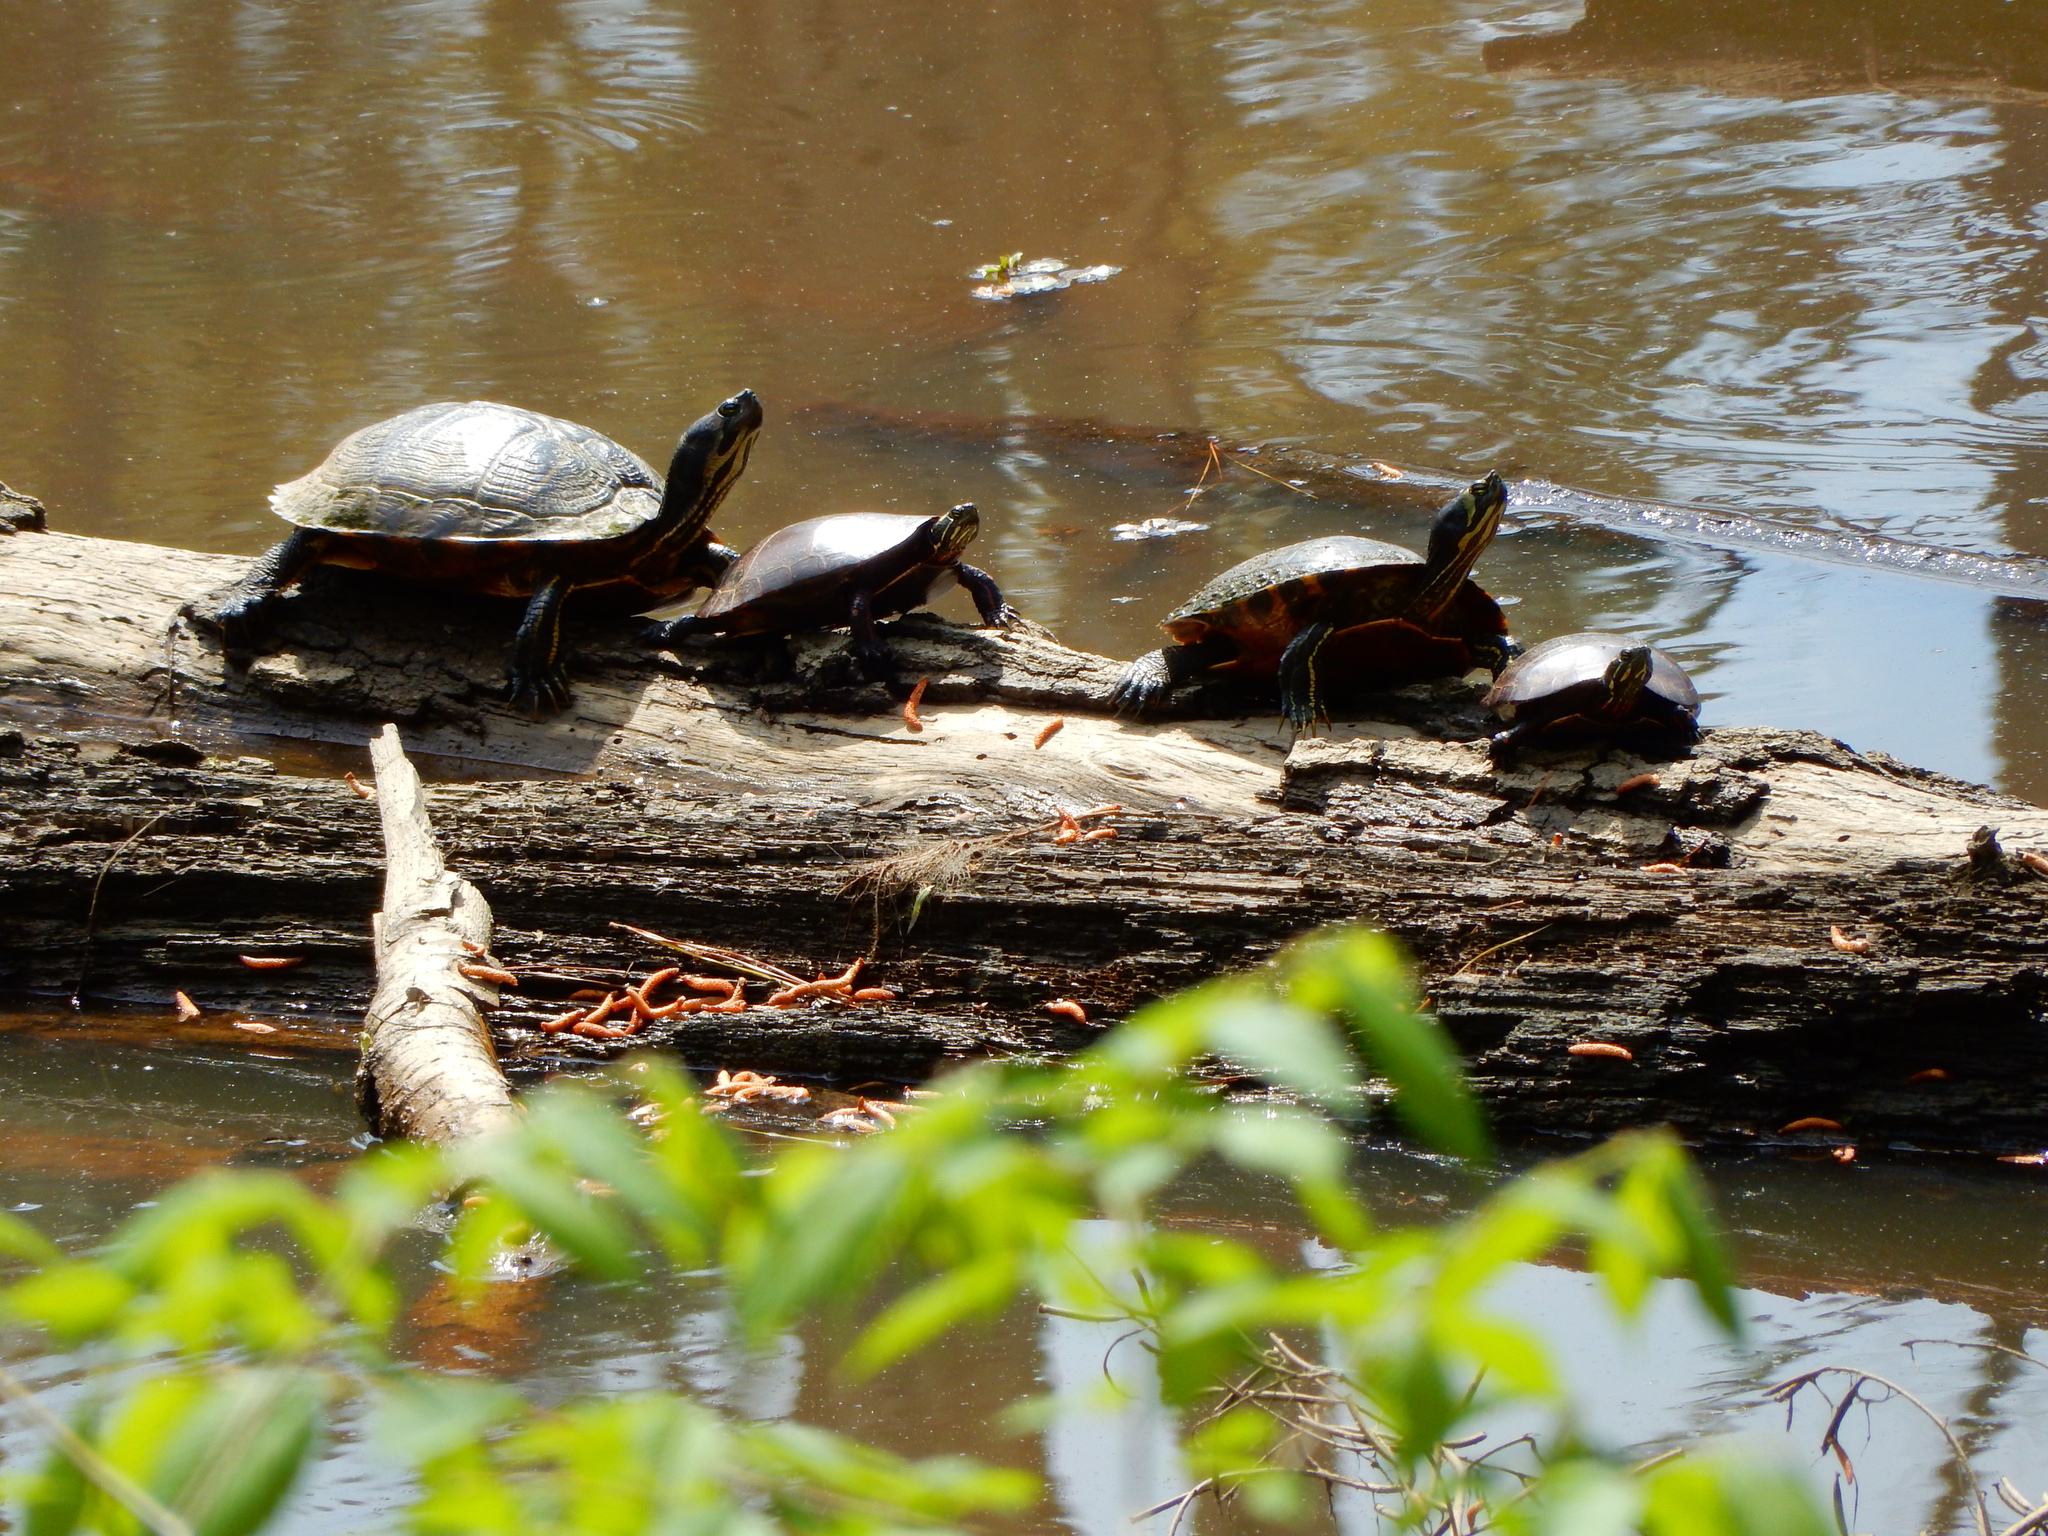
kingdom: Animalia
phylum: Chordata
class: Testudines
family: Emydidae
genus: Trachemys
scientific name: Trachemys scripta
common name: Slider
